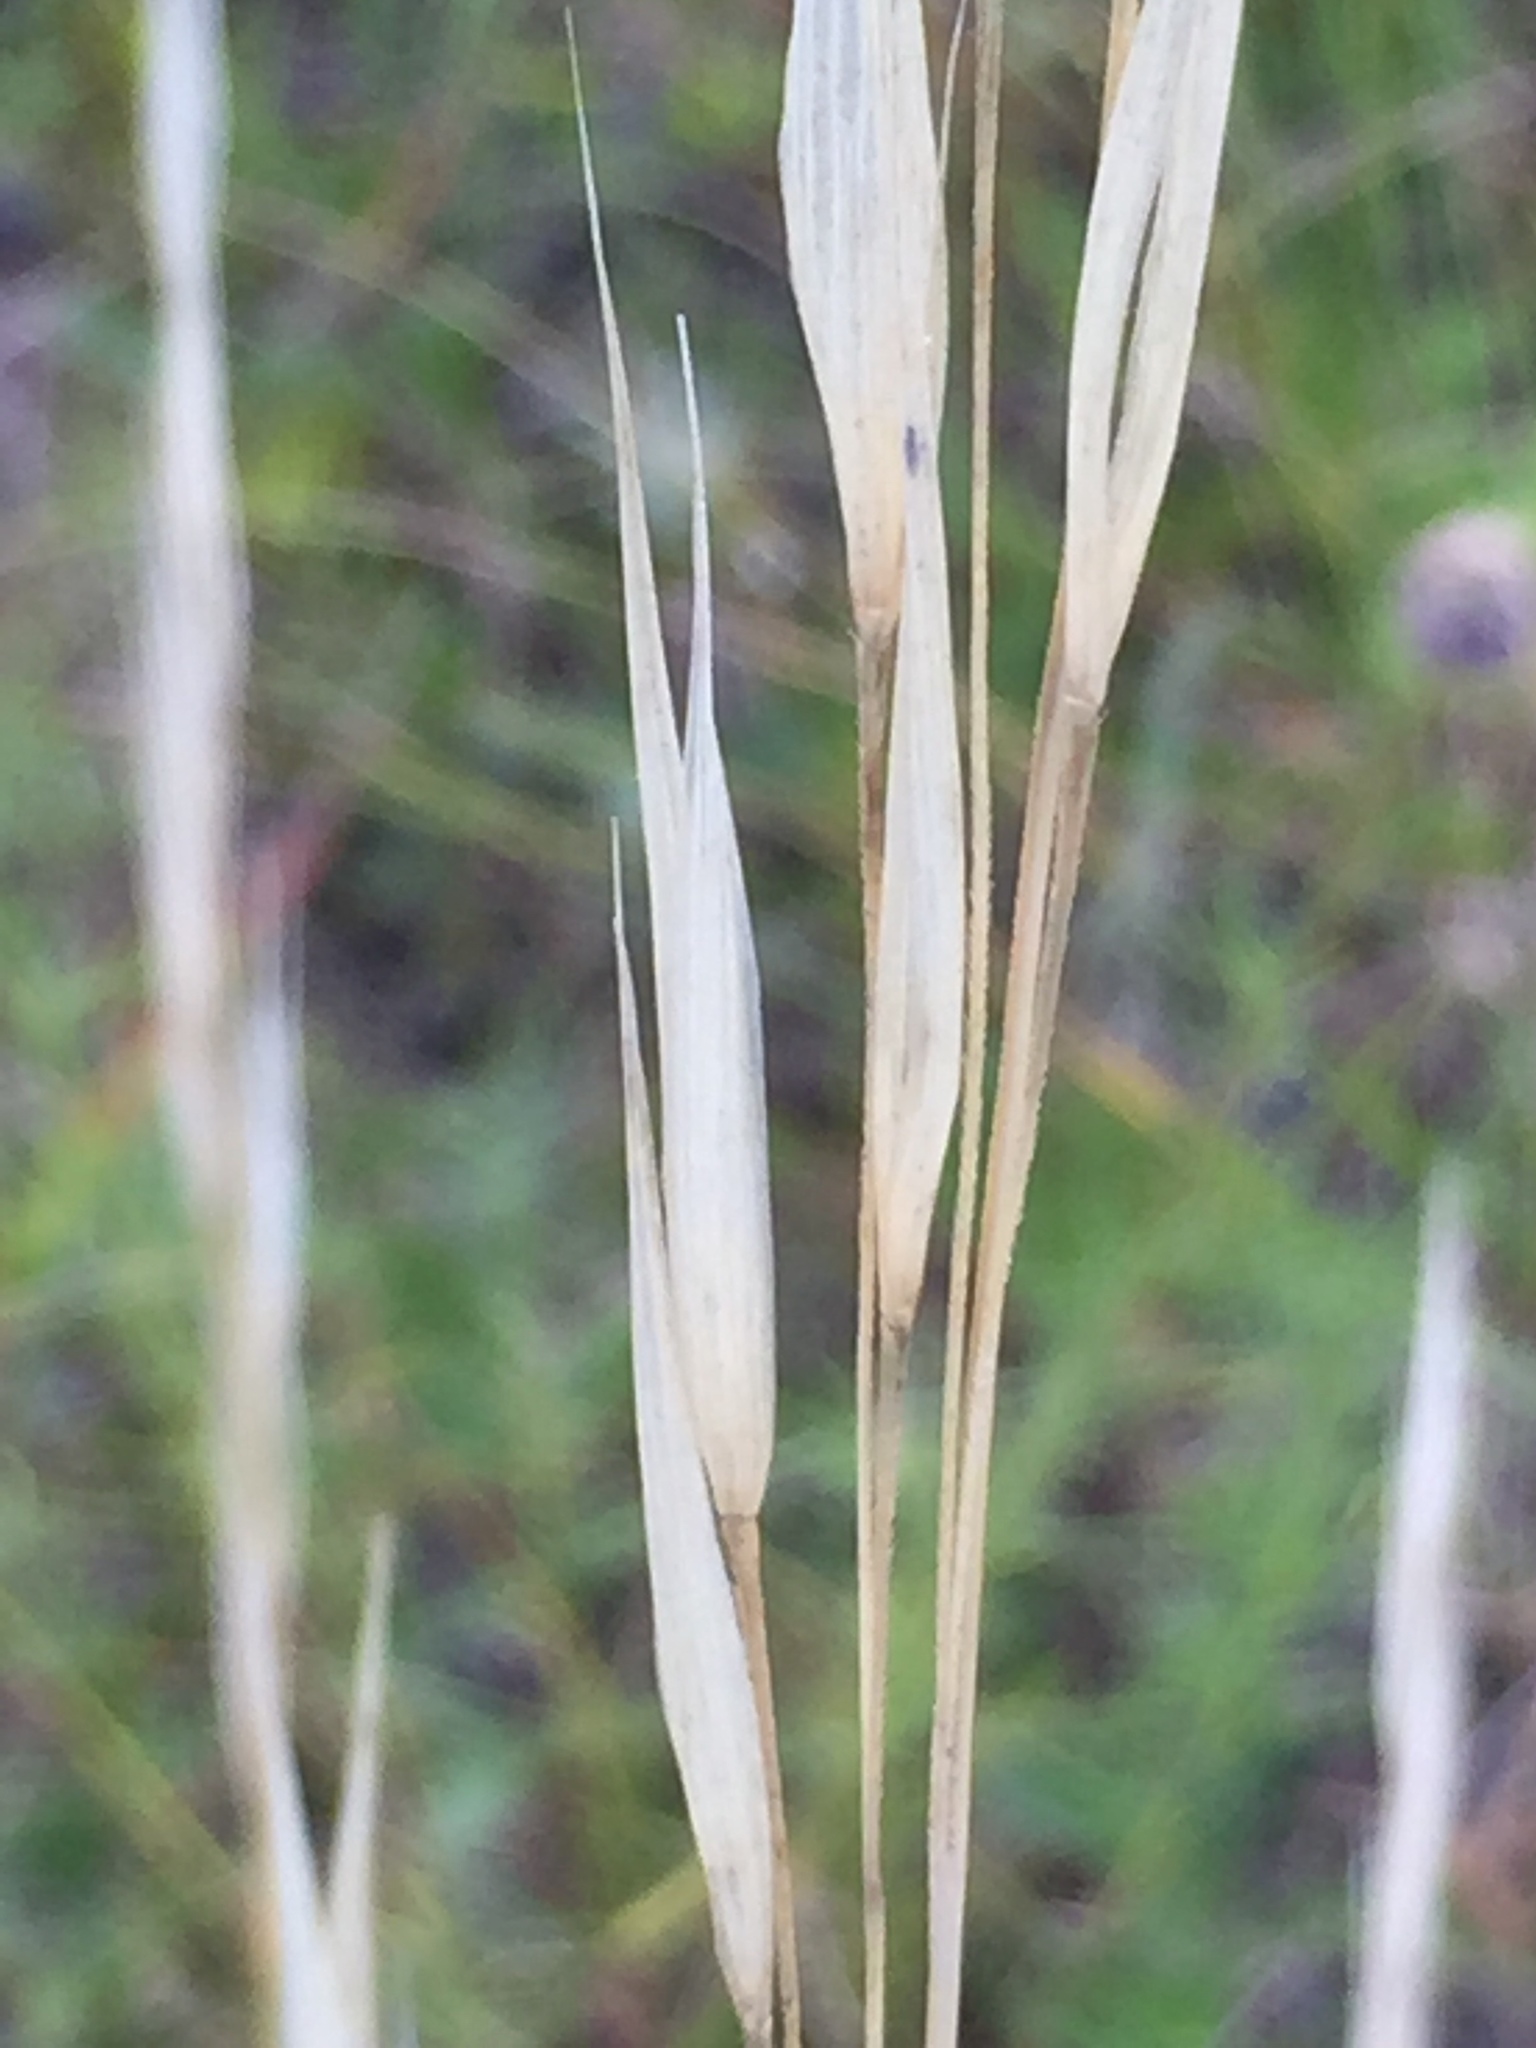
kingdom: Plantae
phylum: Tracheophyta
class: Liliopsida
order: Poales
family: Poaceae
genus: Hesperostipa
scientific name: Hesperostipa spartea
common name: Porcupine grass
